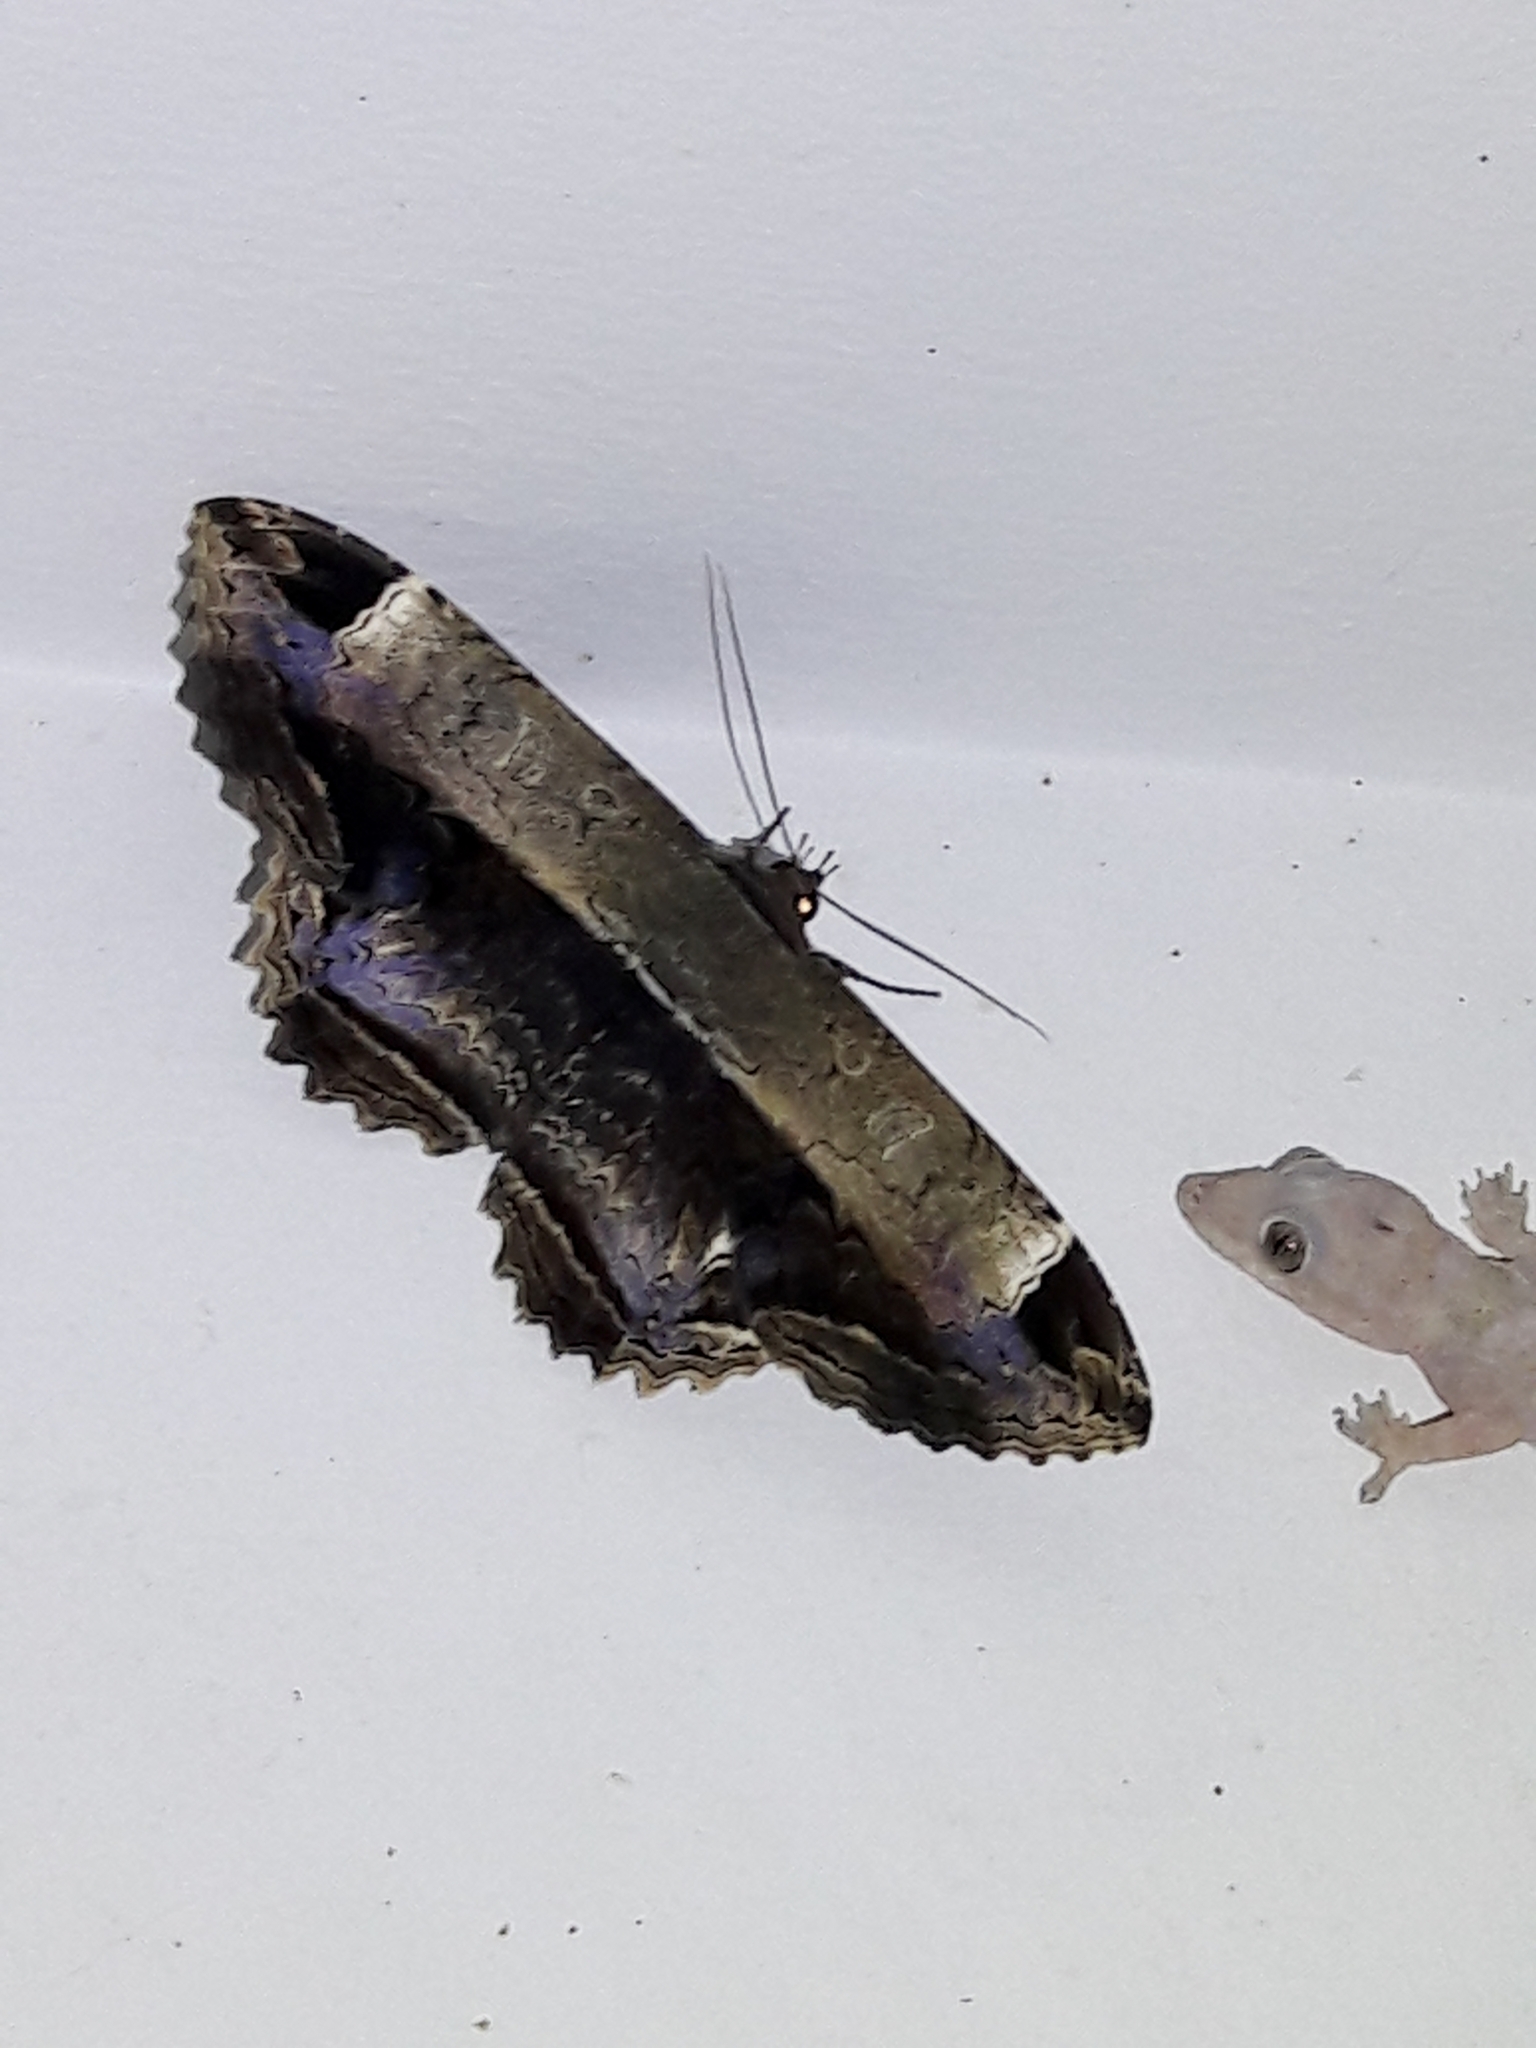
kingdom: Animalia
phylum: Arthropoda
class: Insecta
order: Lepidoptera
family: Noctuidae
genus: Ronania
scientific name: Ronania
